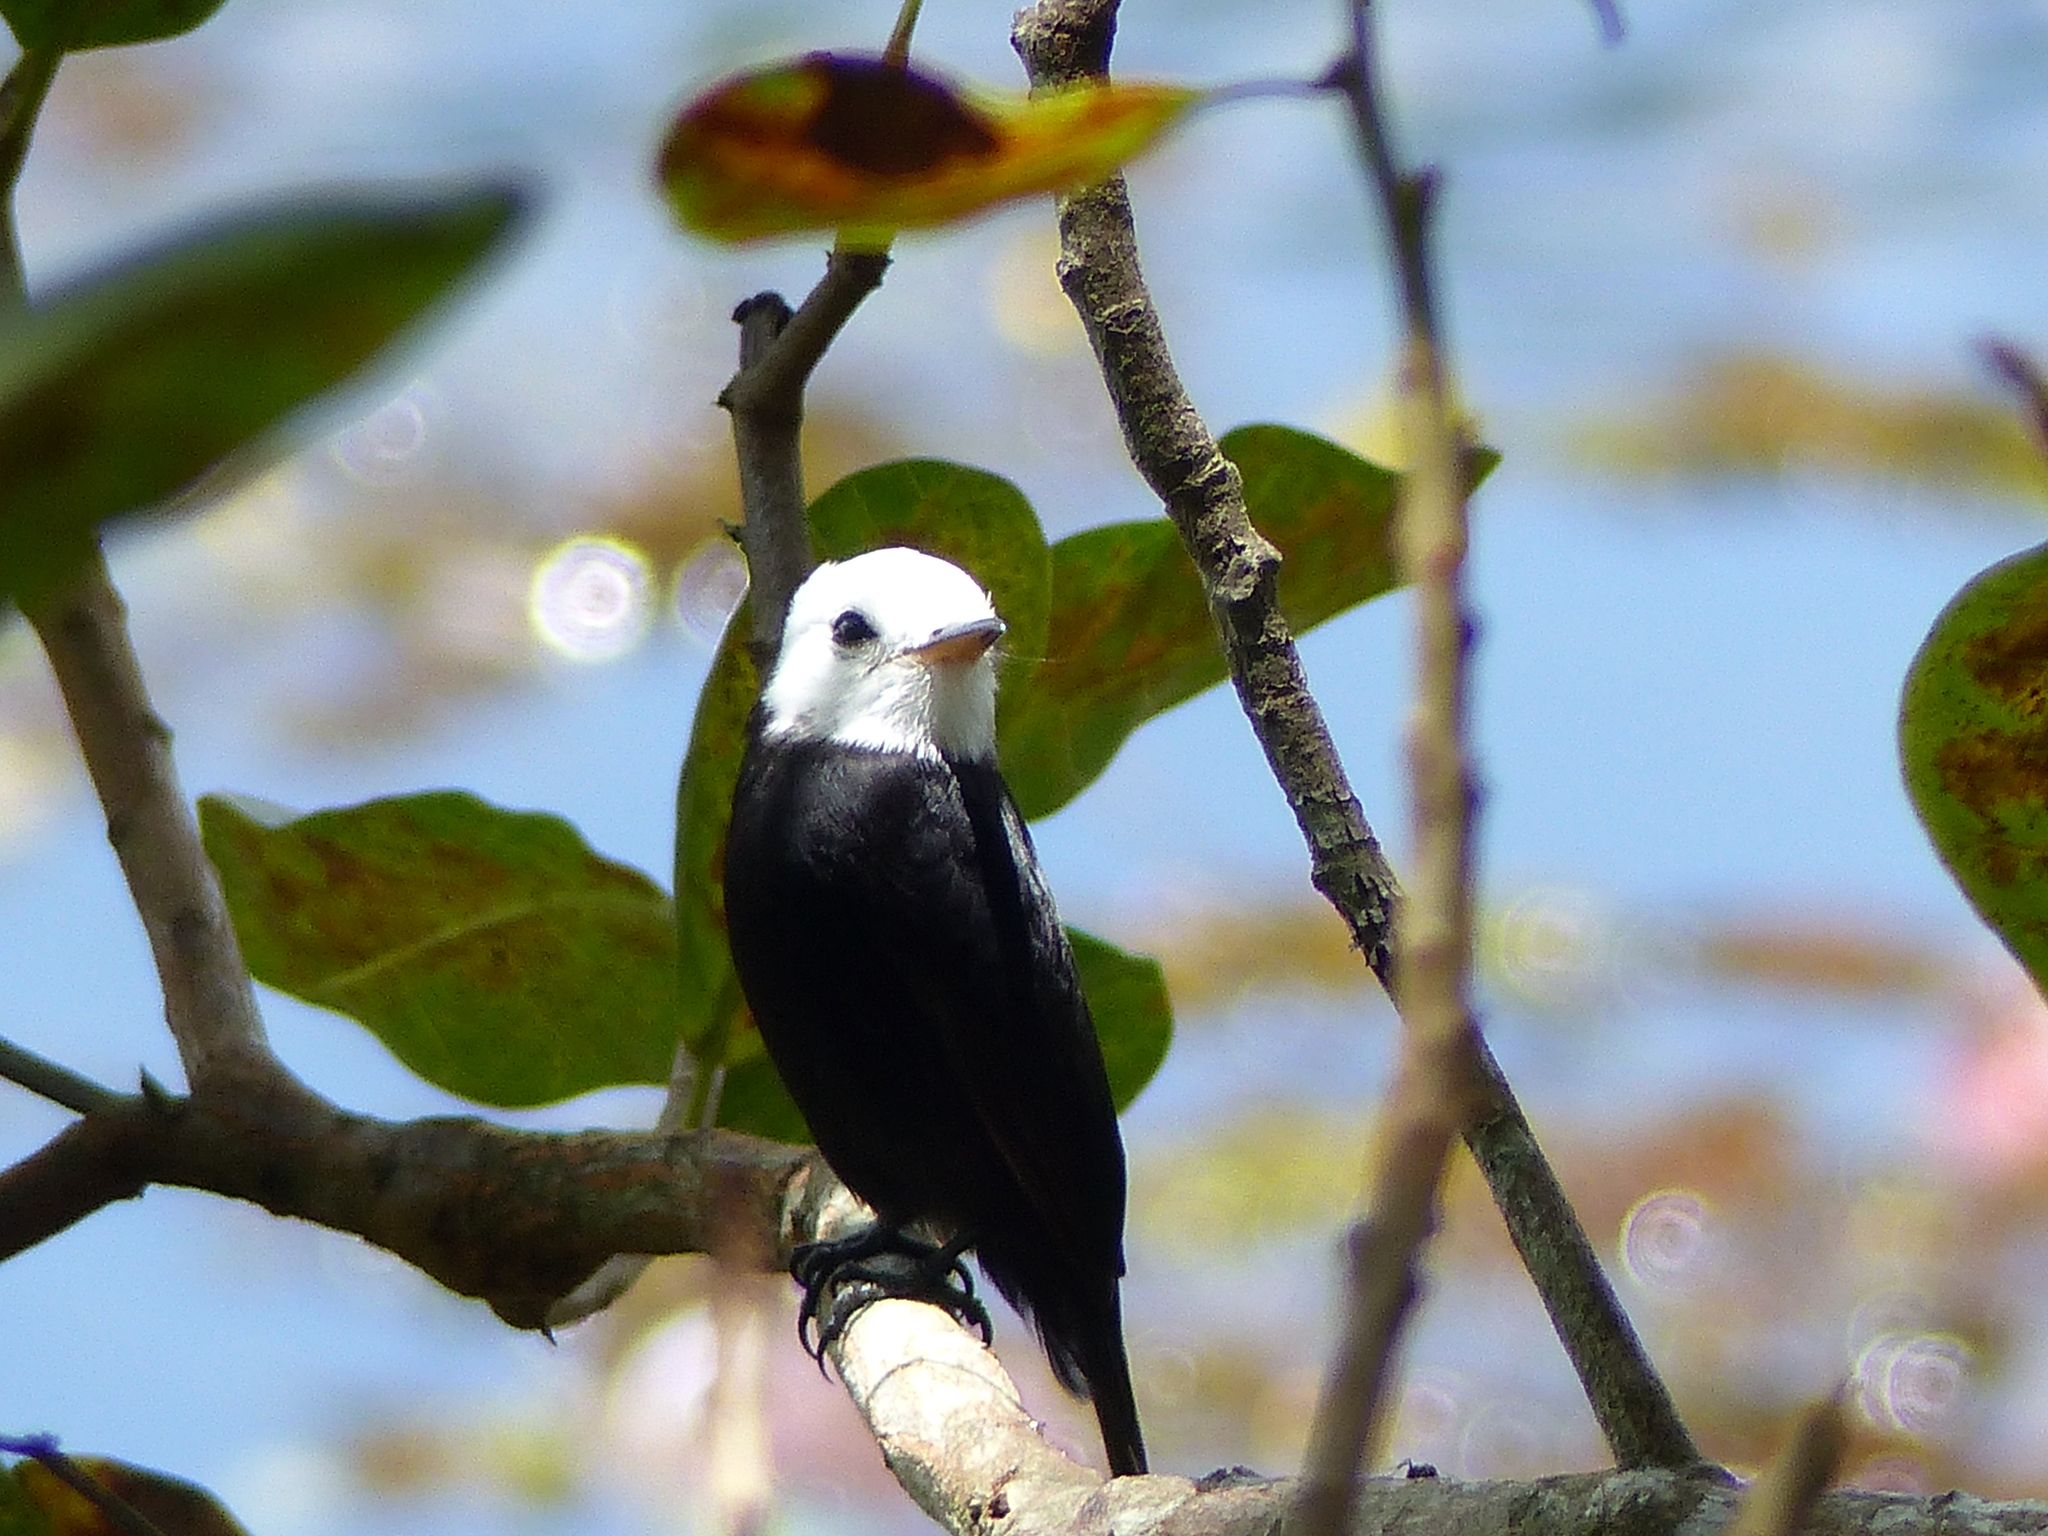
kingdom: Animalia
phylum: Chordata
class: Aves
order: Passeriformes
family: Tyrannidae
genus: Arundinicola
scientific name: Arundinicola leucocephala
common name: White-headed marsh tyrant
